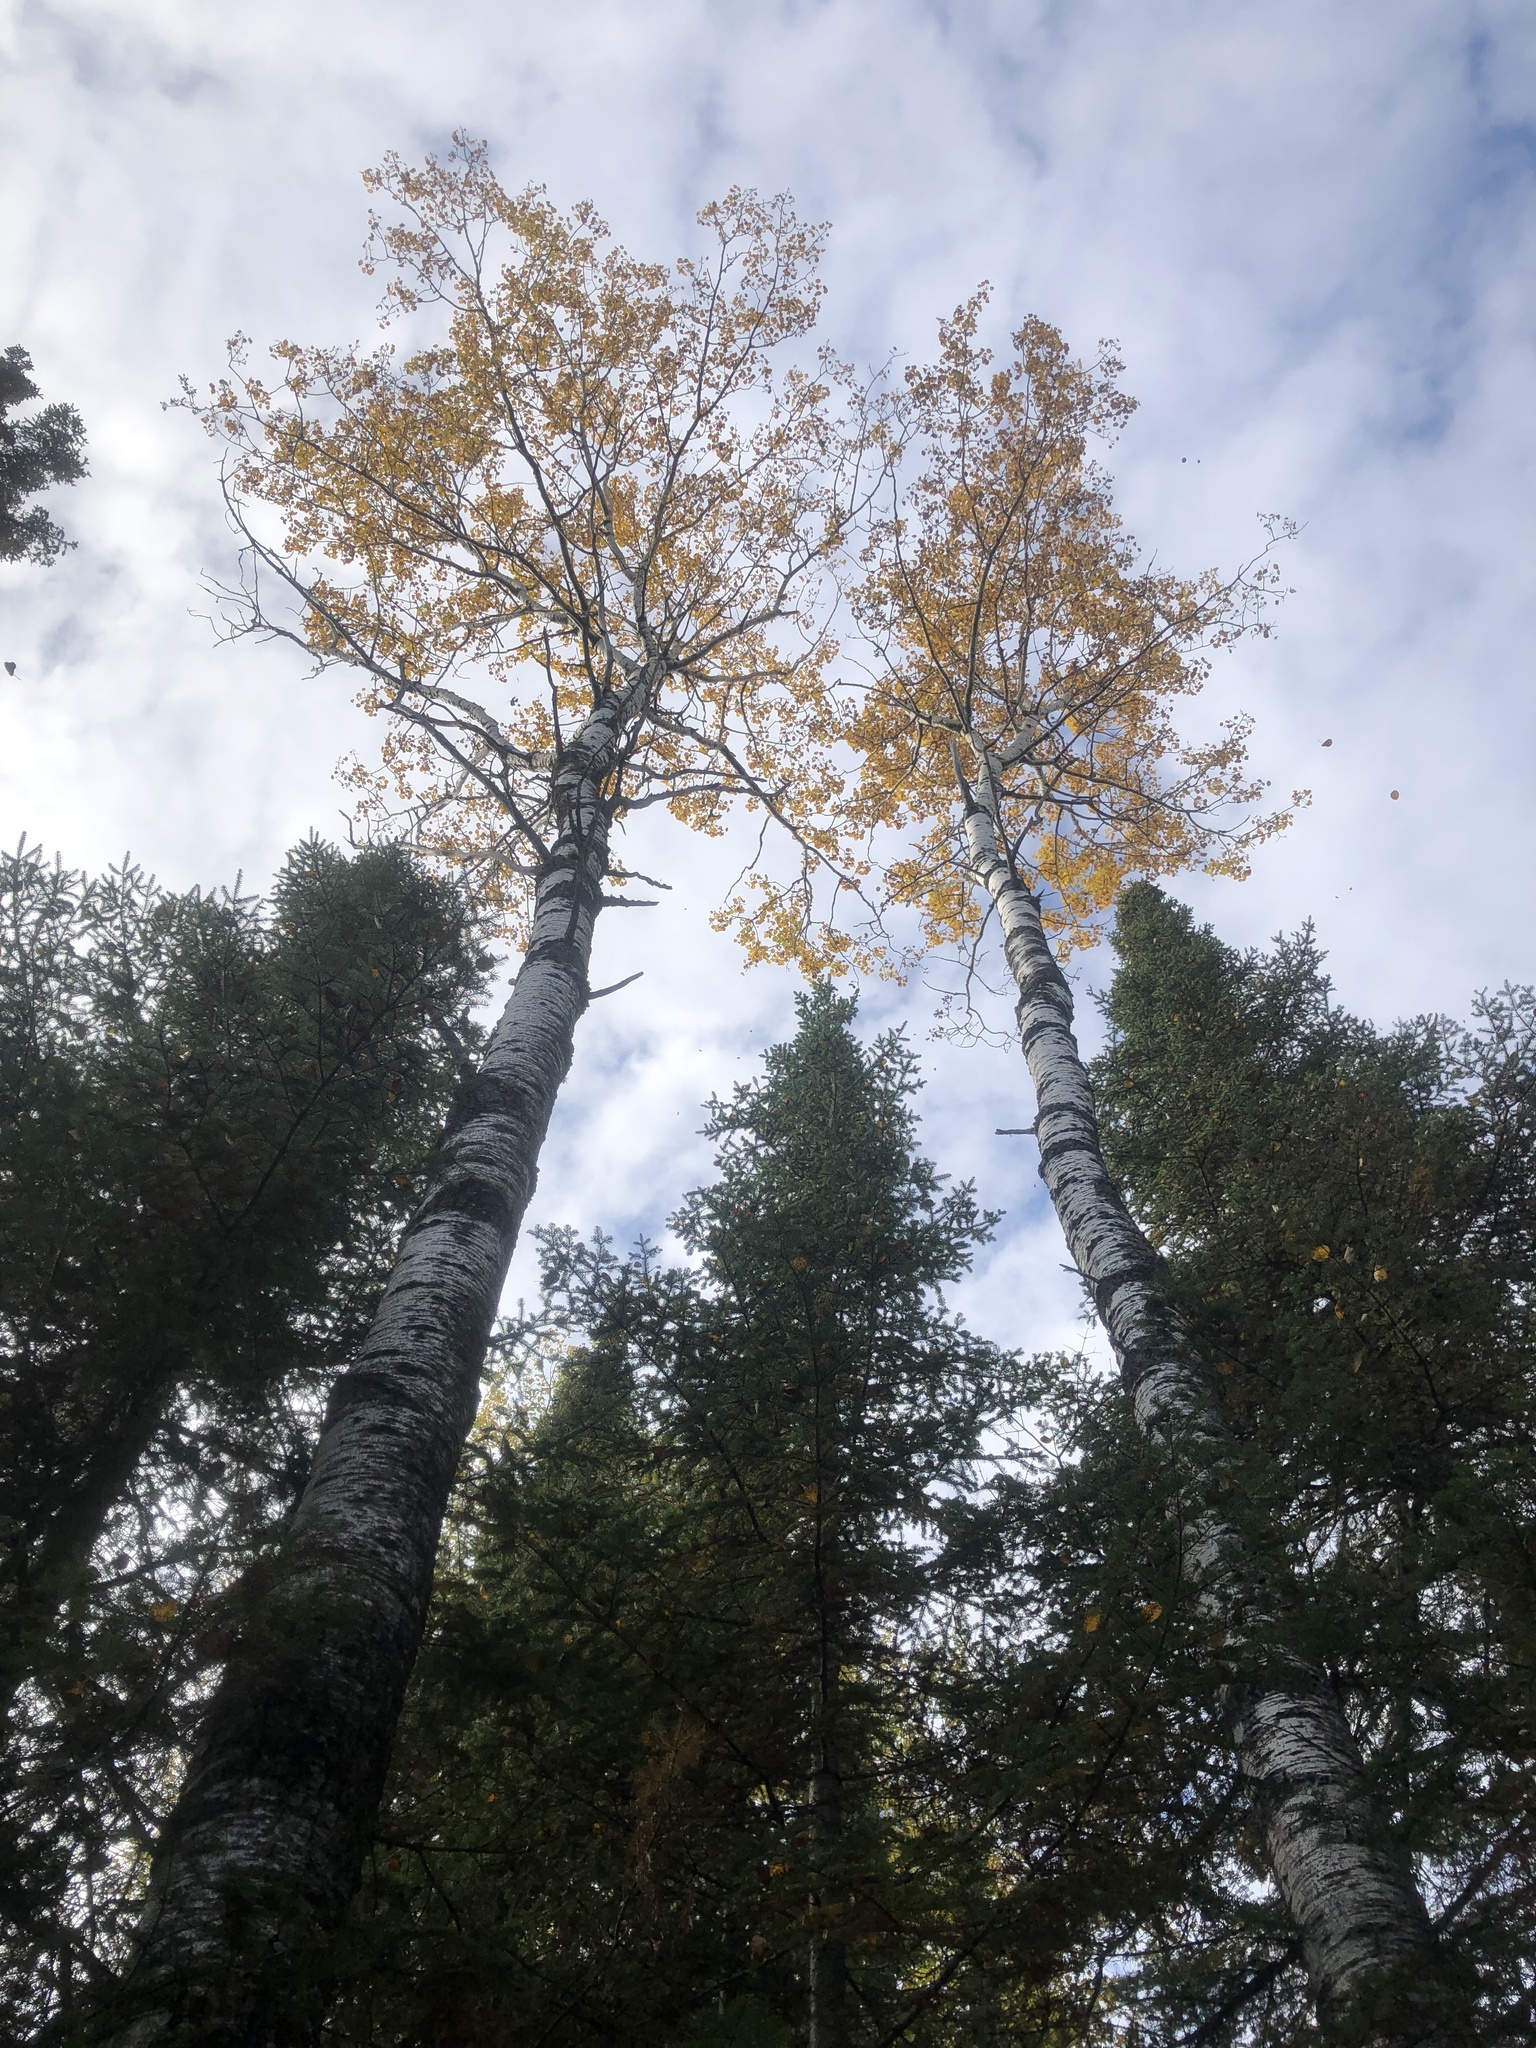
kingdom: Plantae
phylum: Tracheophyta
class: Magnoliopsida
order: Malpighiales
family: Salicaceae
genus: Populus
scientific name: Populus tremuloides
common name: Quaking aspen
